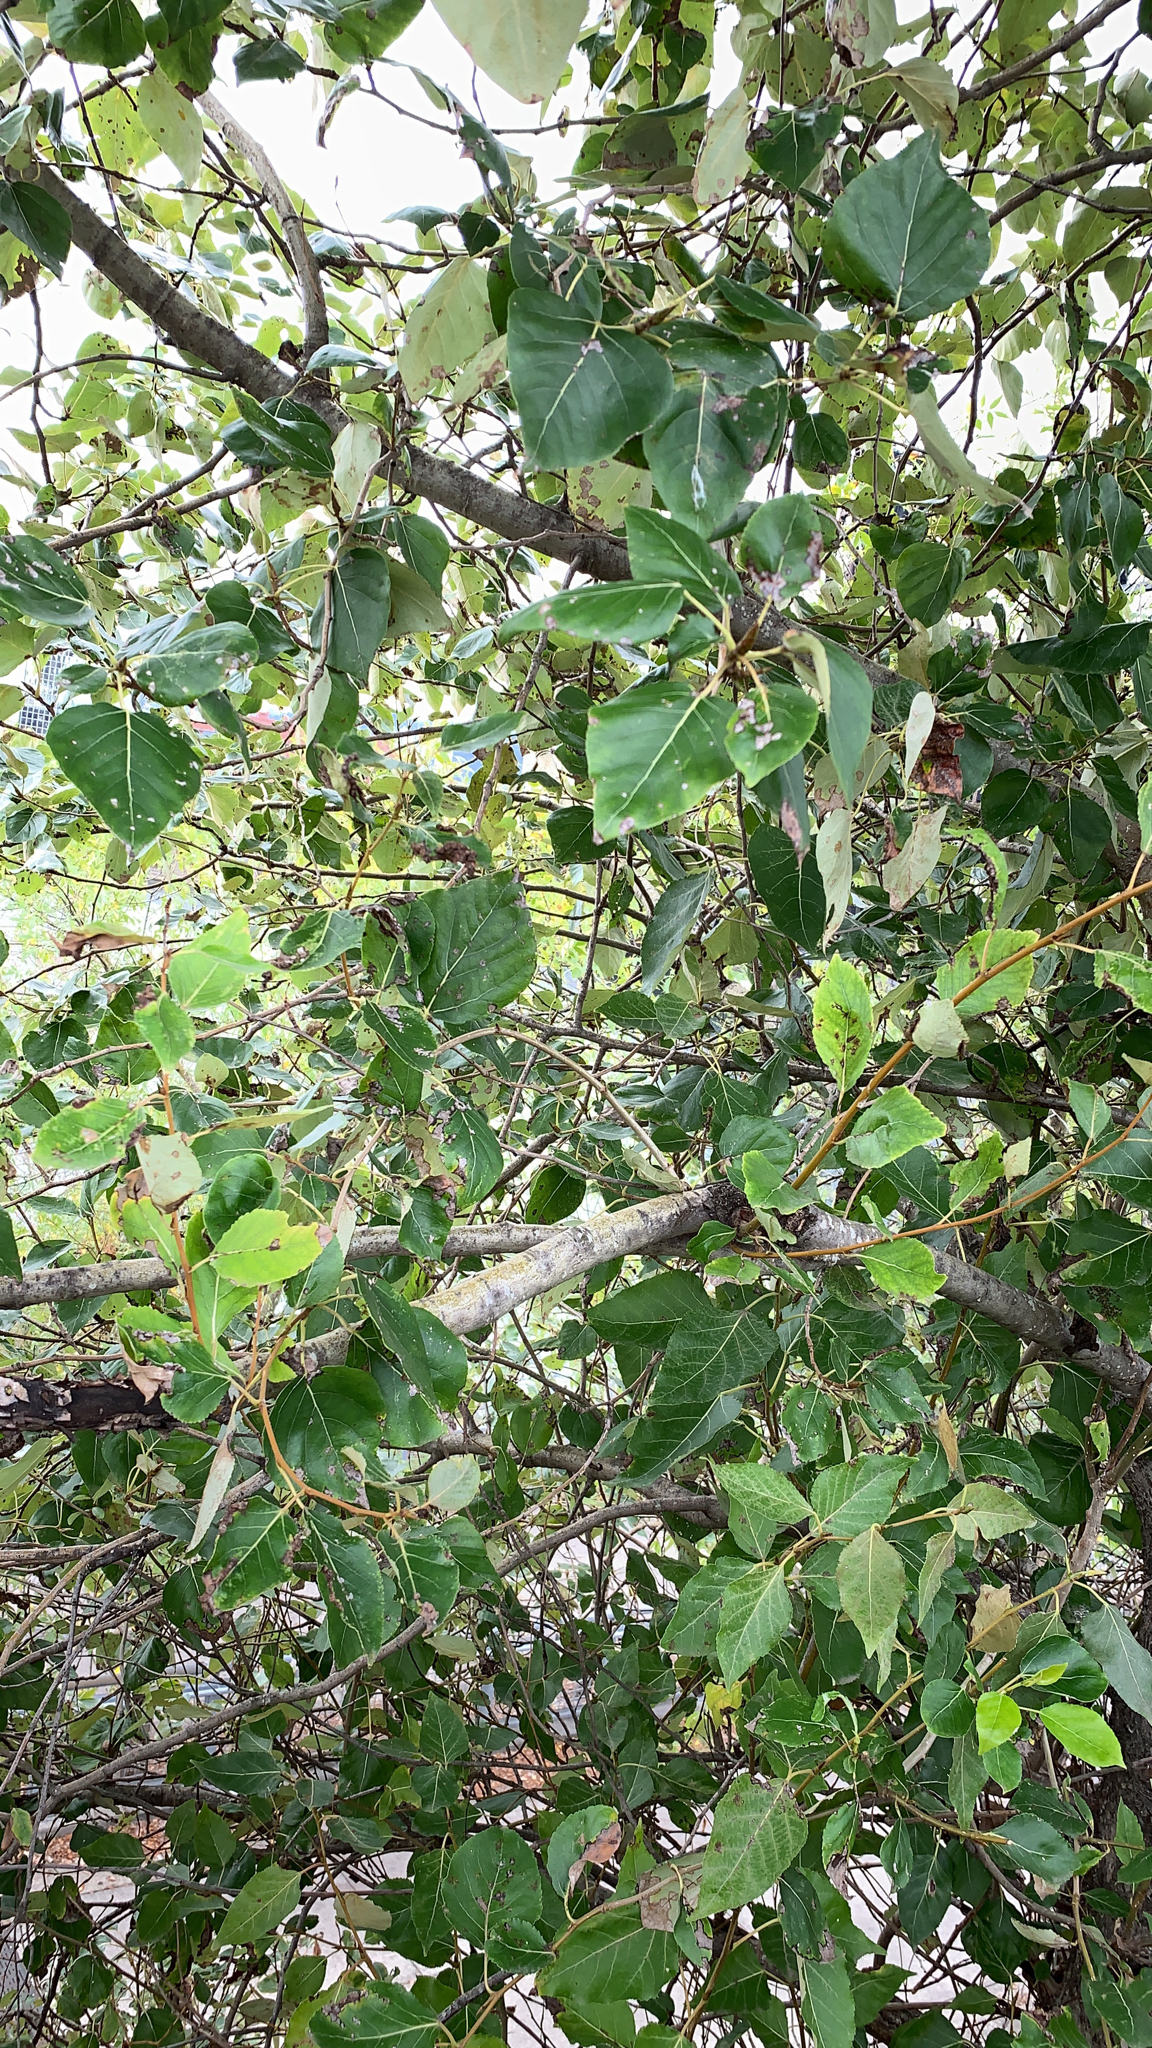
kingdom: Plantae
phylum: Tracheophyta
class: Magnoliopsida
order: Malpighiales
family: Salicaceae
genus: Populus
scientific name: Populus trichocarpa
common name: Black cottonwood
